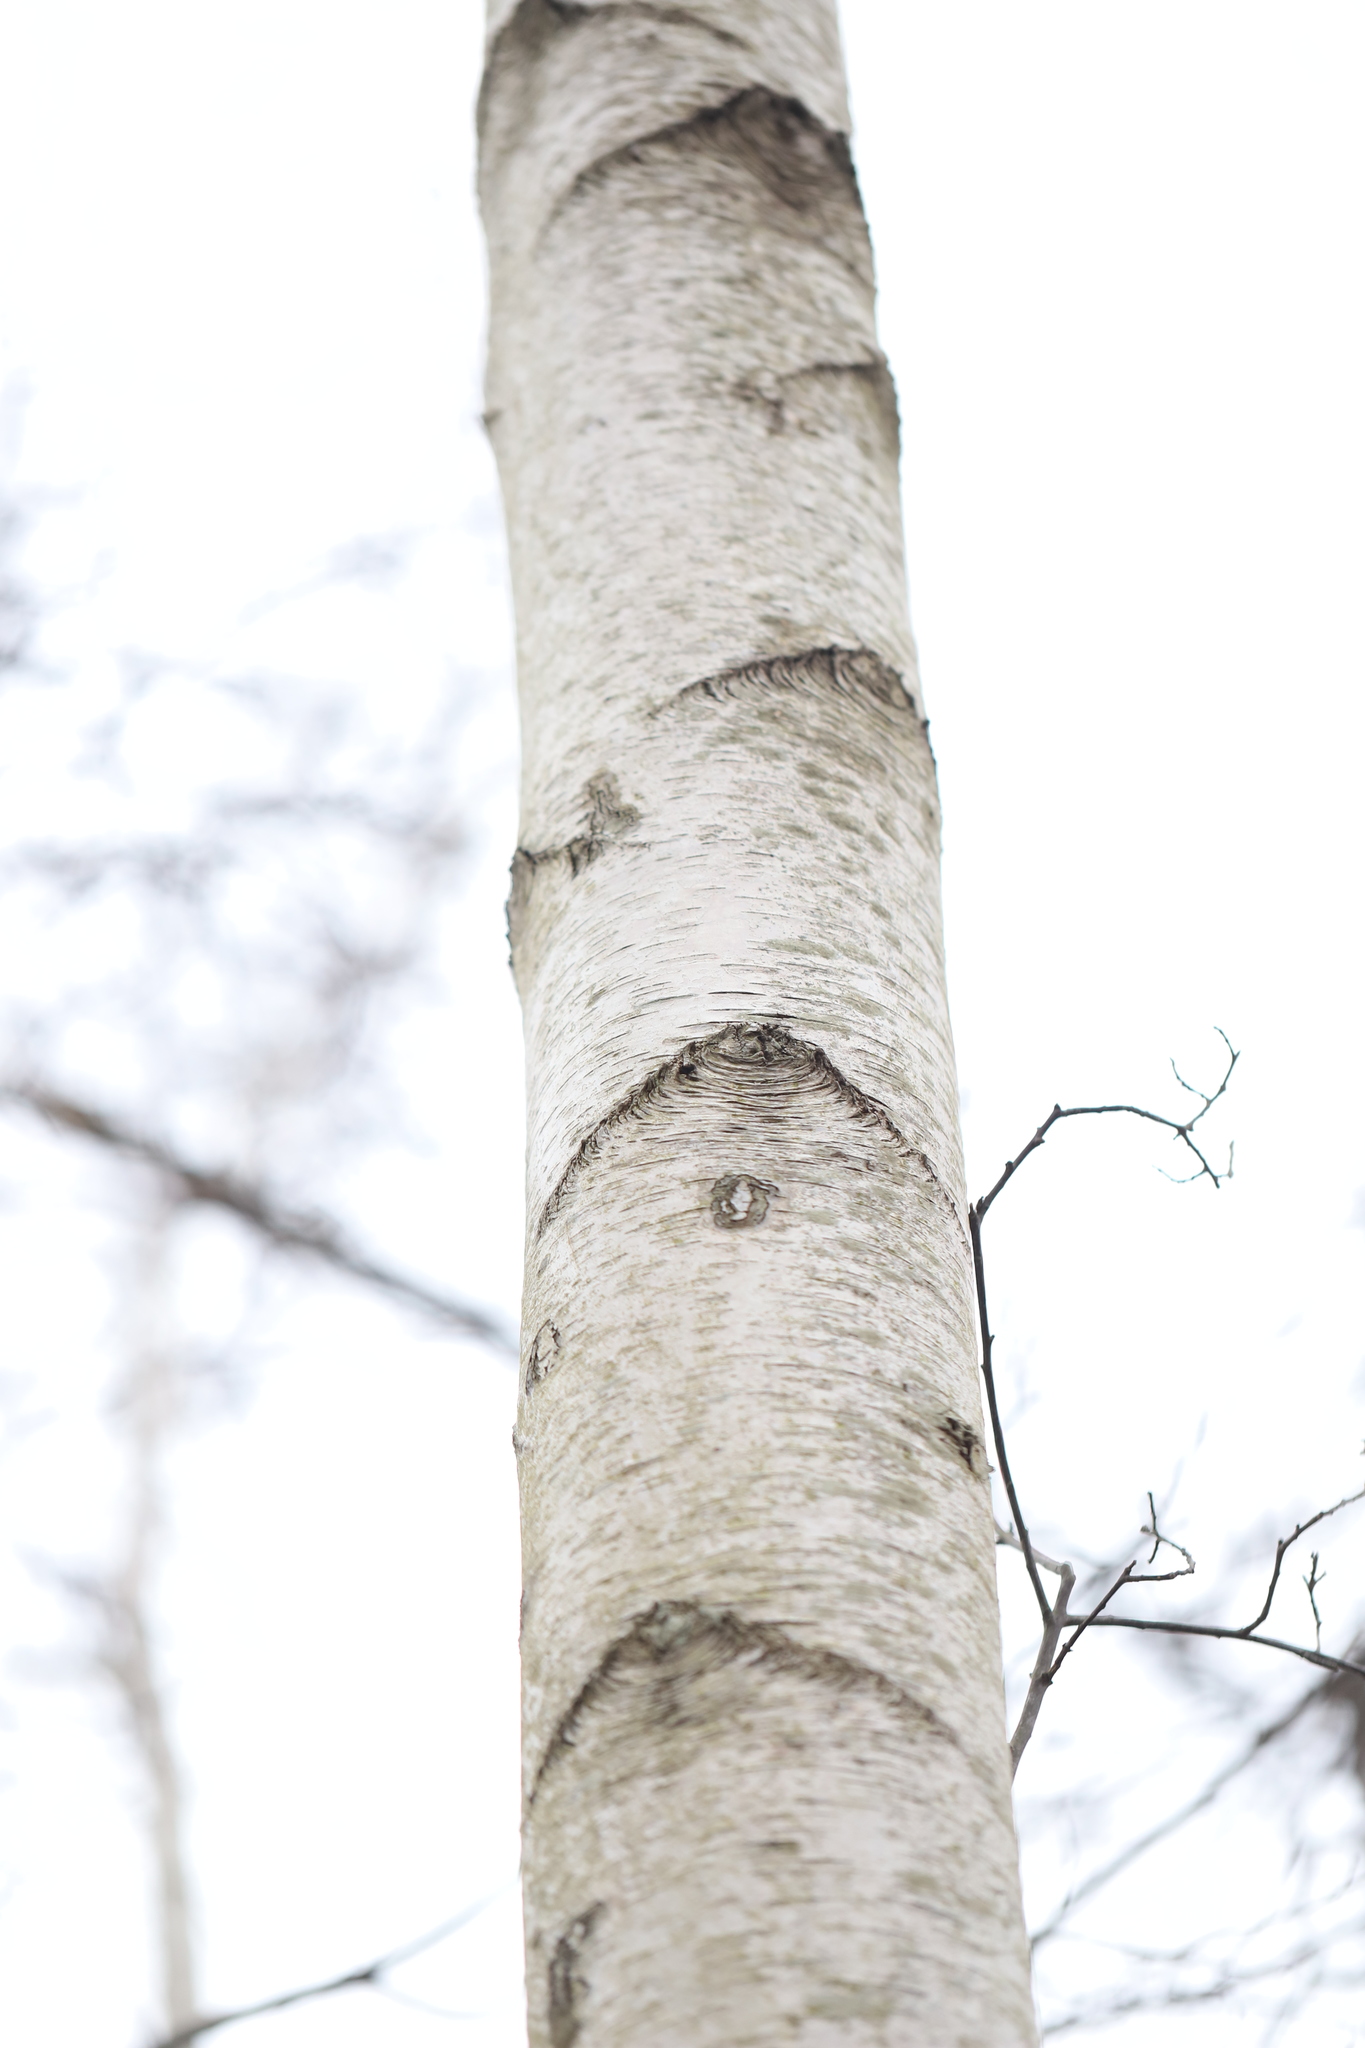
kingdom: Plantae
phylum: Tracheophyta
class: Magnoliopsida
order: Fagales
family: Betulaceae
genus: Betula
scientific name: Betula populifolia
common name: Fire birch
